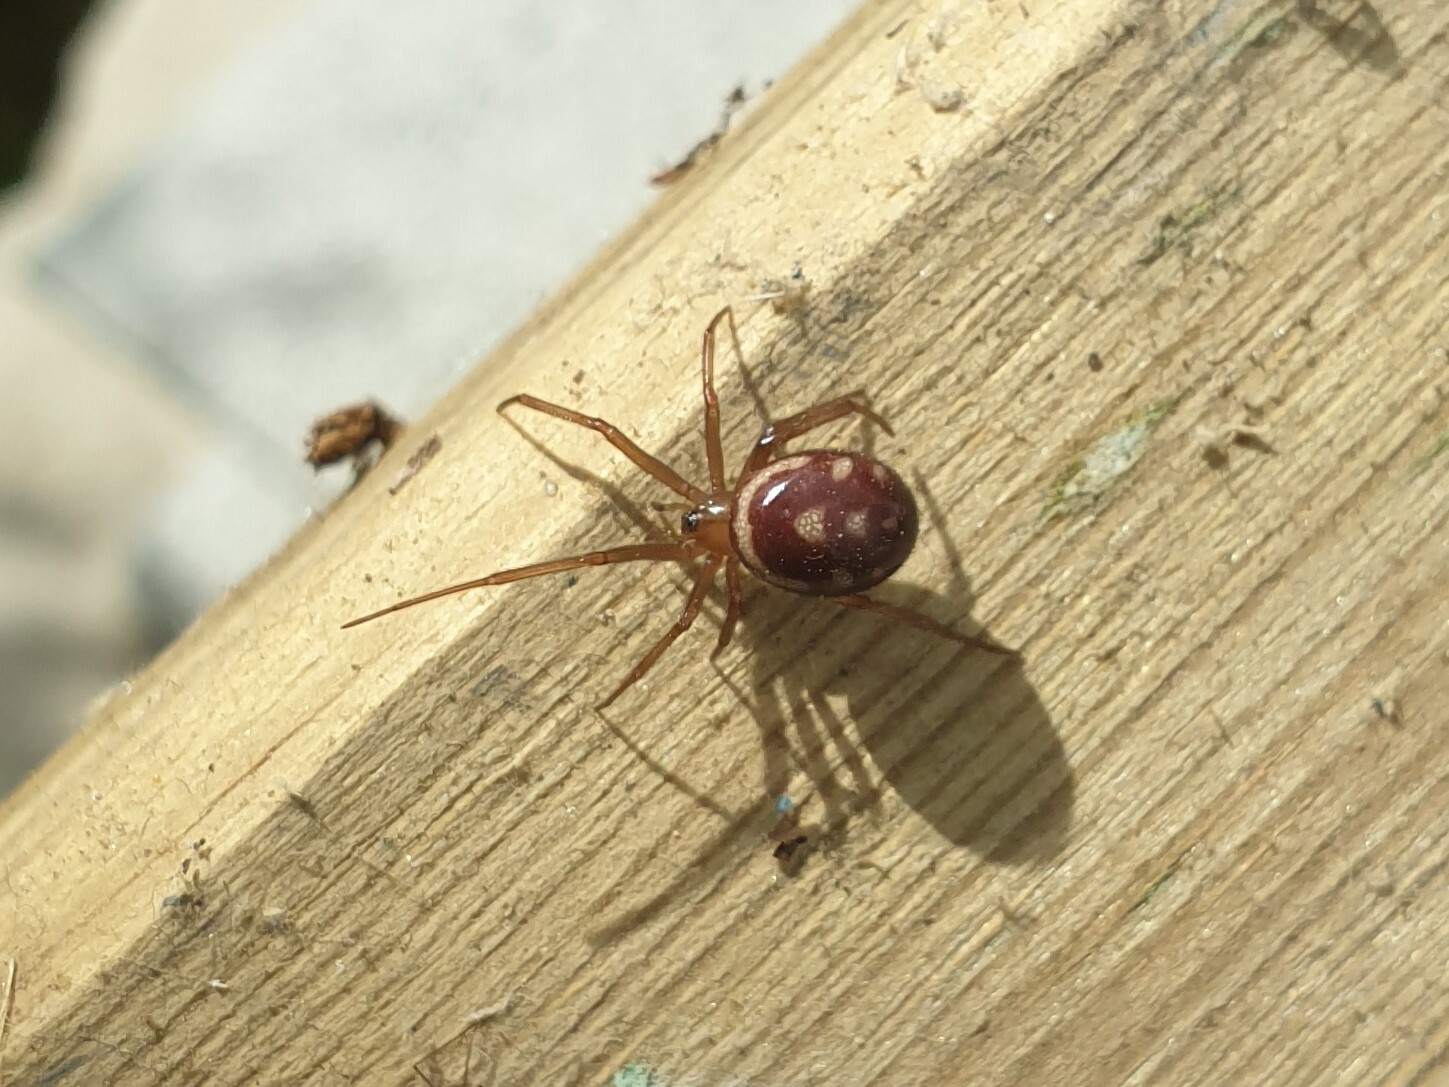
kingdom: Animalia
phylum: Arthropoda
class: Arachnida
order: Araneae
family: Theridiidae
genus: Steatoda
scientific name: Steatoda grossa
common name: False black widow
